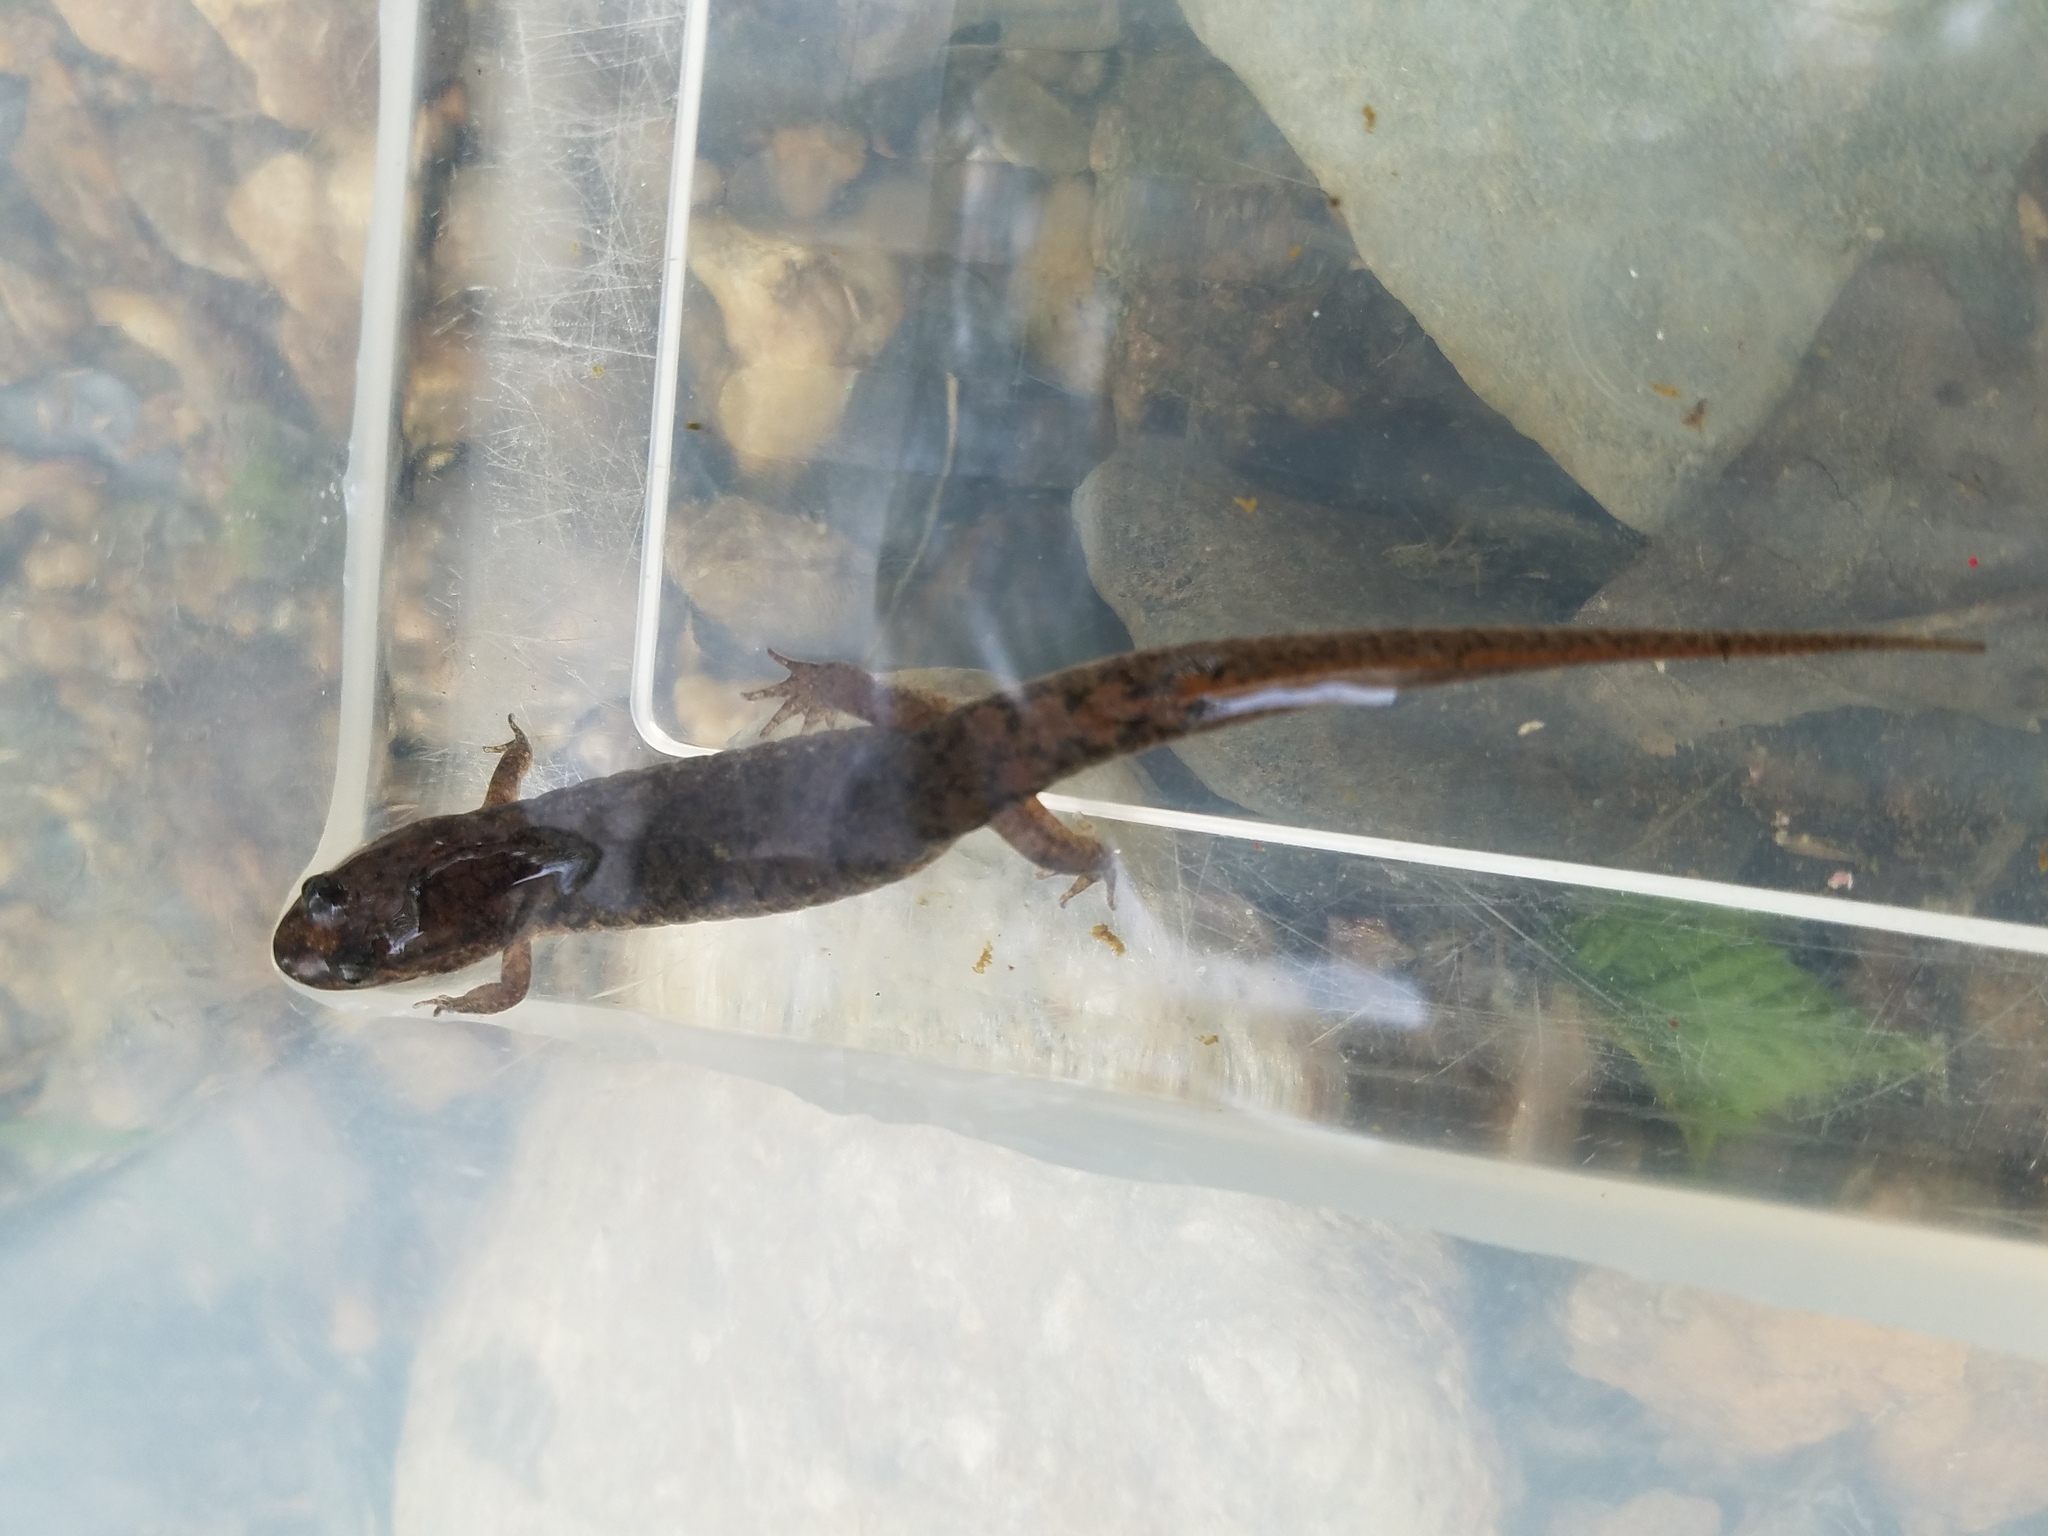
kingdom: Animalia
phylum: Chordata
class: Amphibia
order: Caudata
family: Plethodontidae
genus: Desmognathus
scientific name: Desmognathus monticola
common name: Seal salamander
